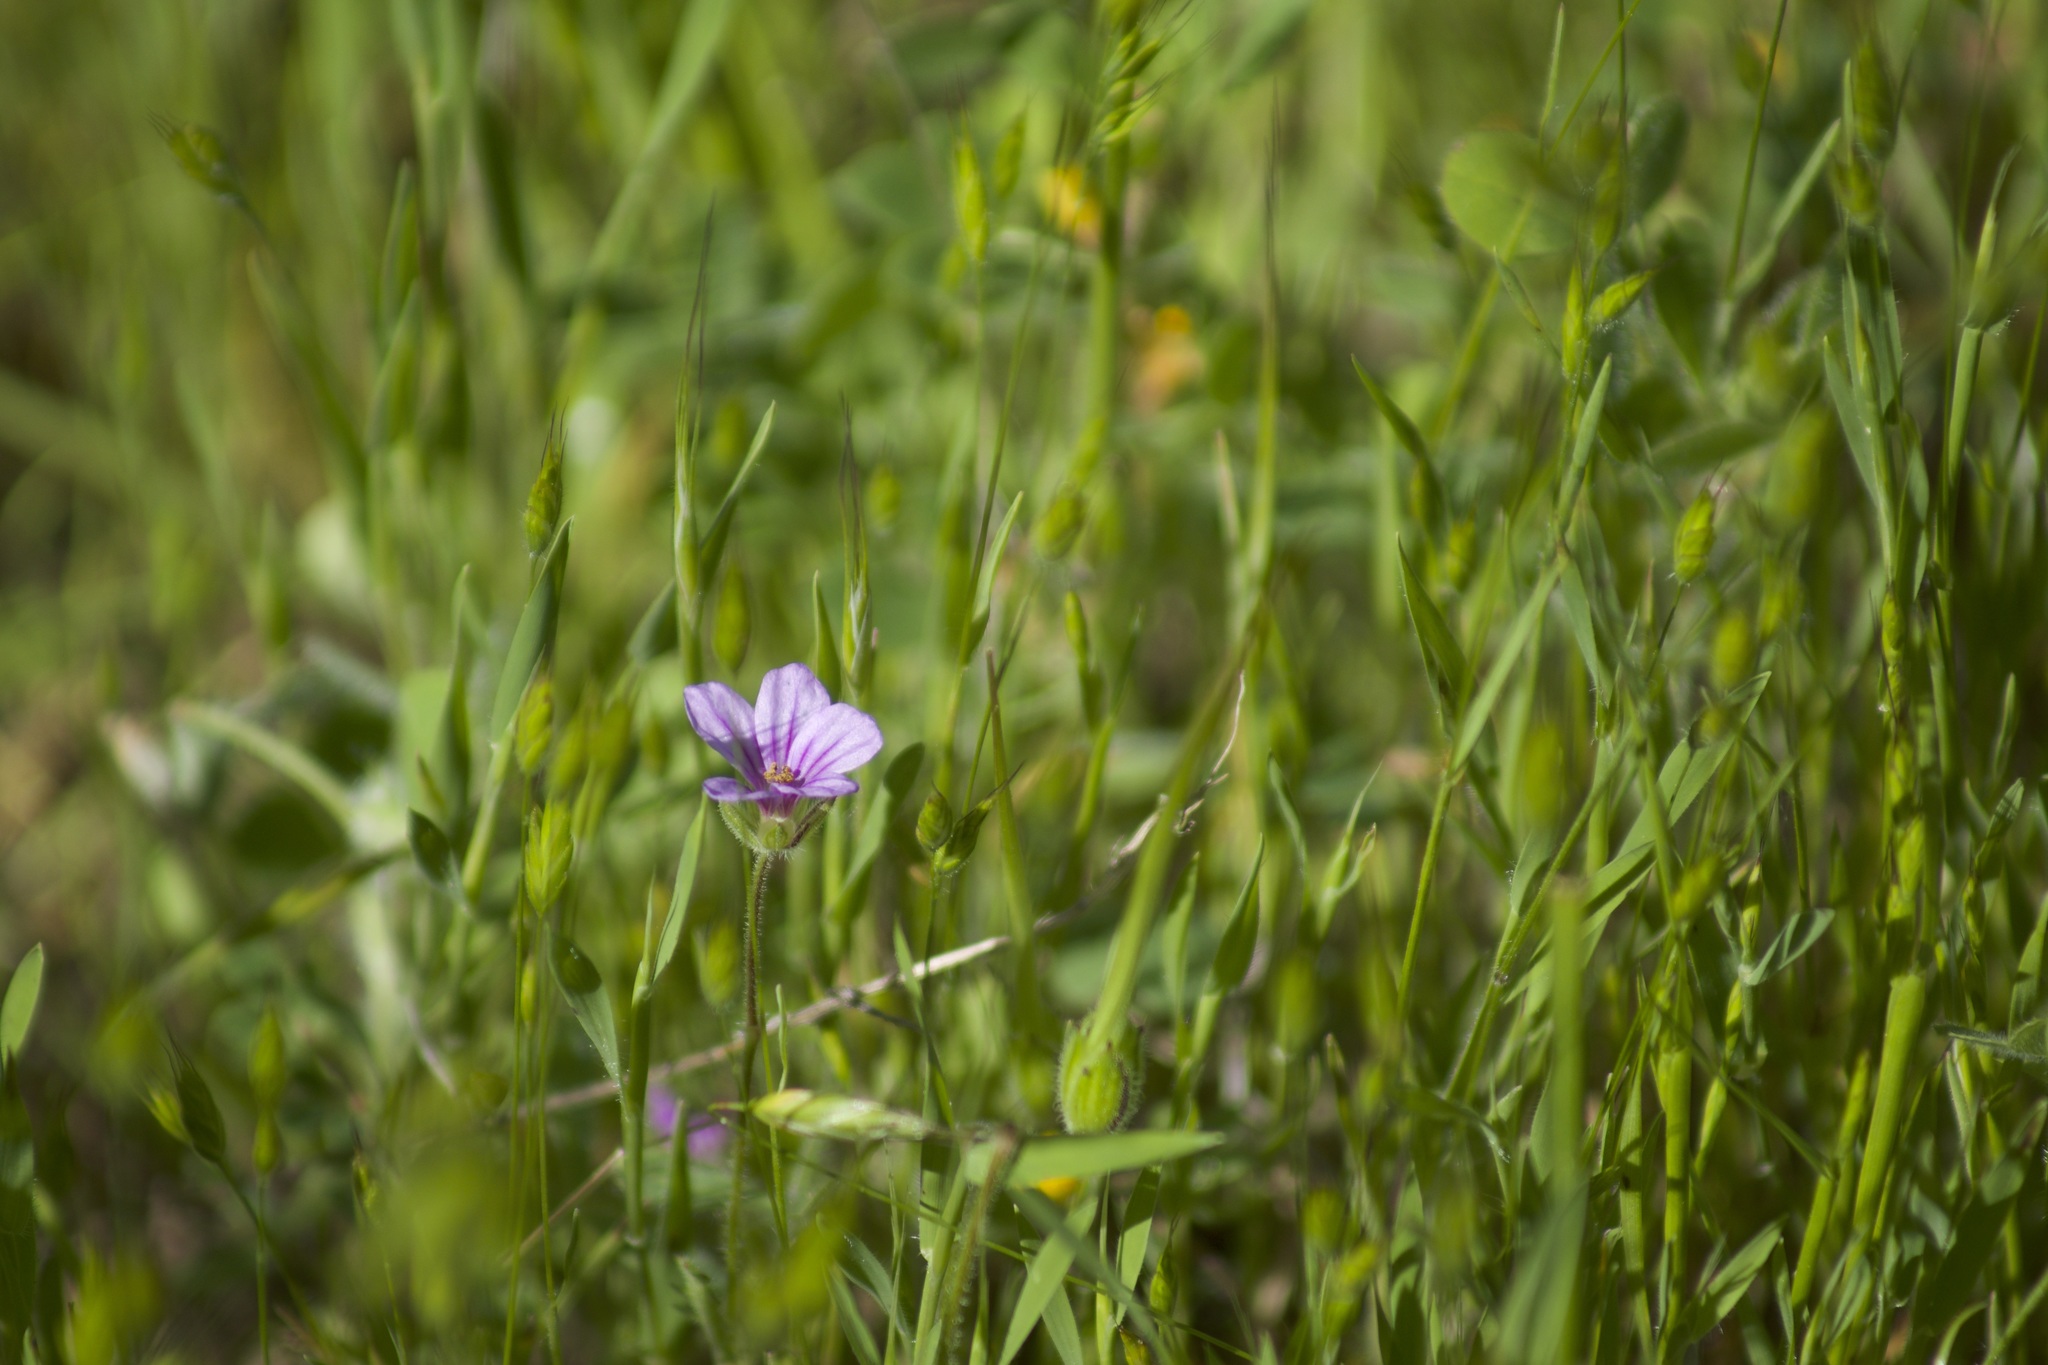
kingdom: Plantae
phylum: Tracheophyta
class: Magnoliopsida
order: Geraniales
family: Geraniaceae
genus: Erodium
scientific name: Erodium botrys
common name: Mediterranean stork's-bill
